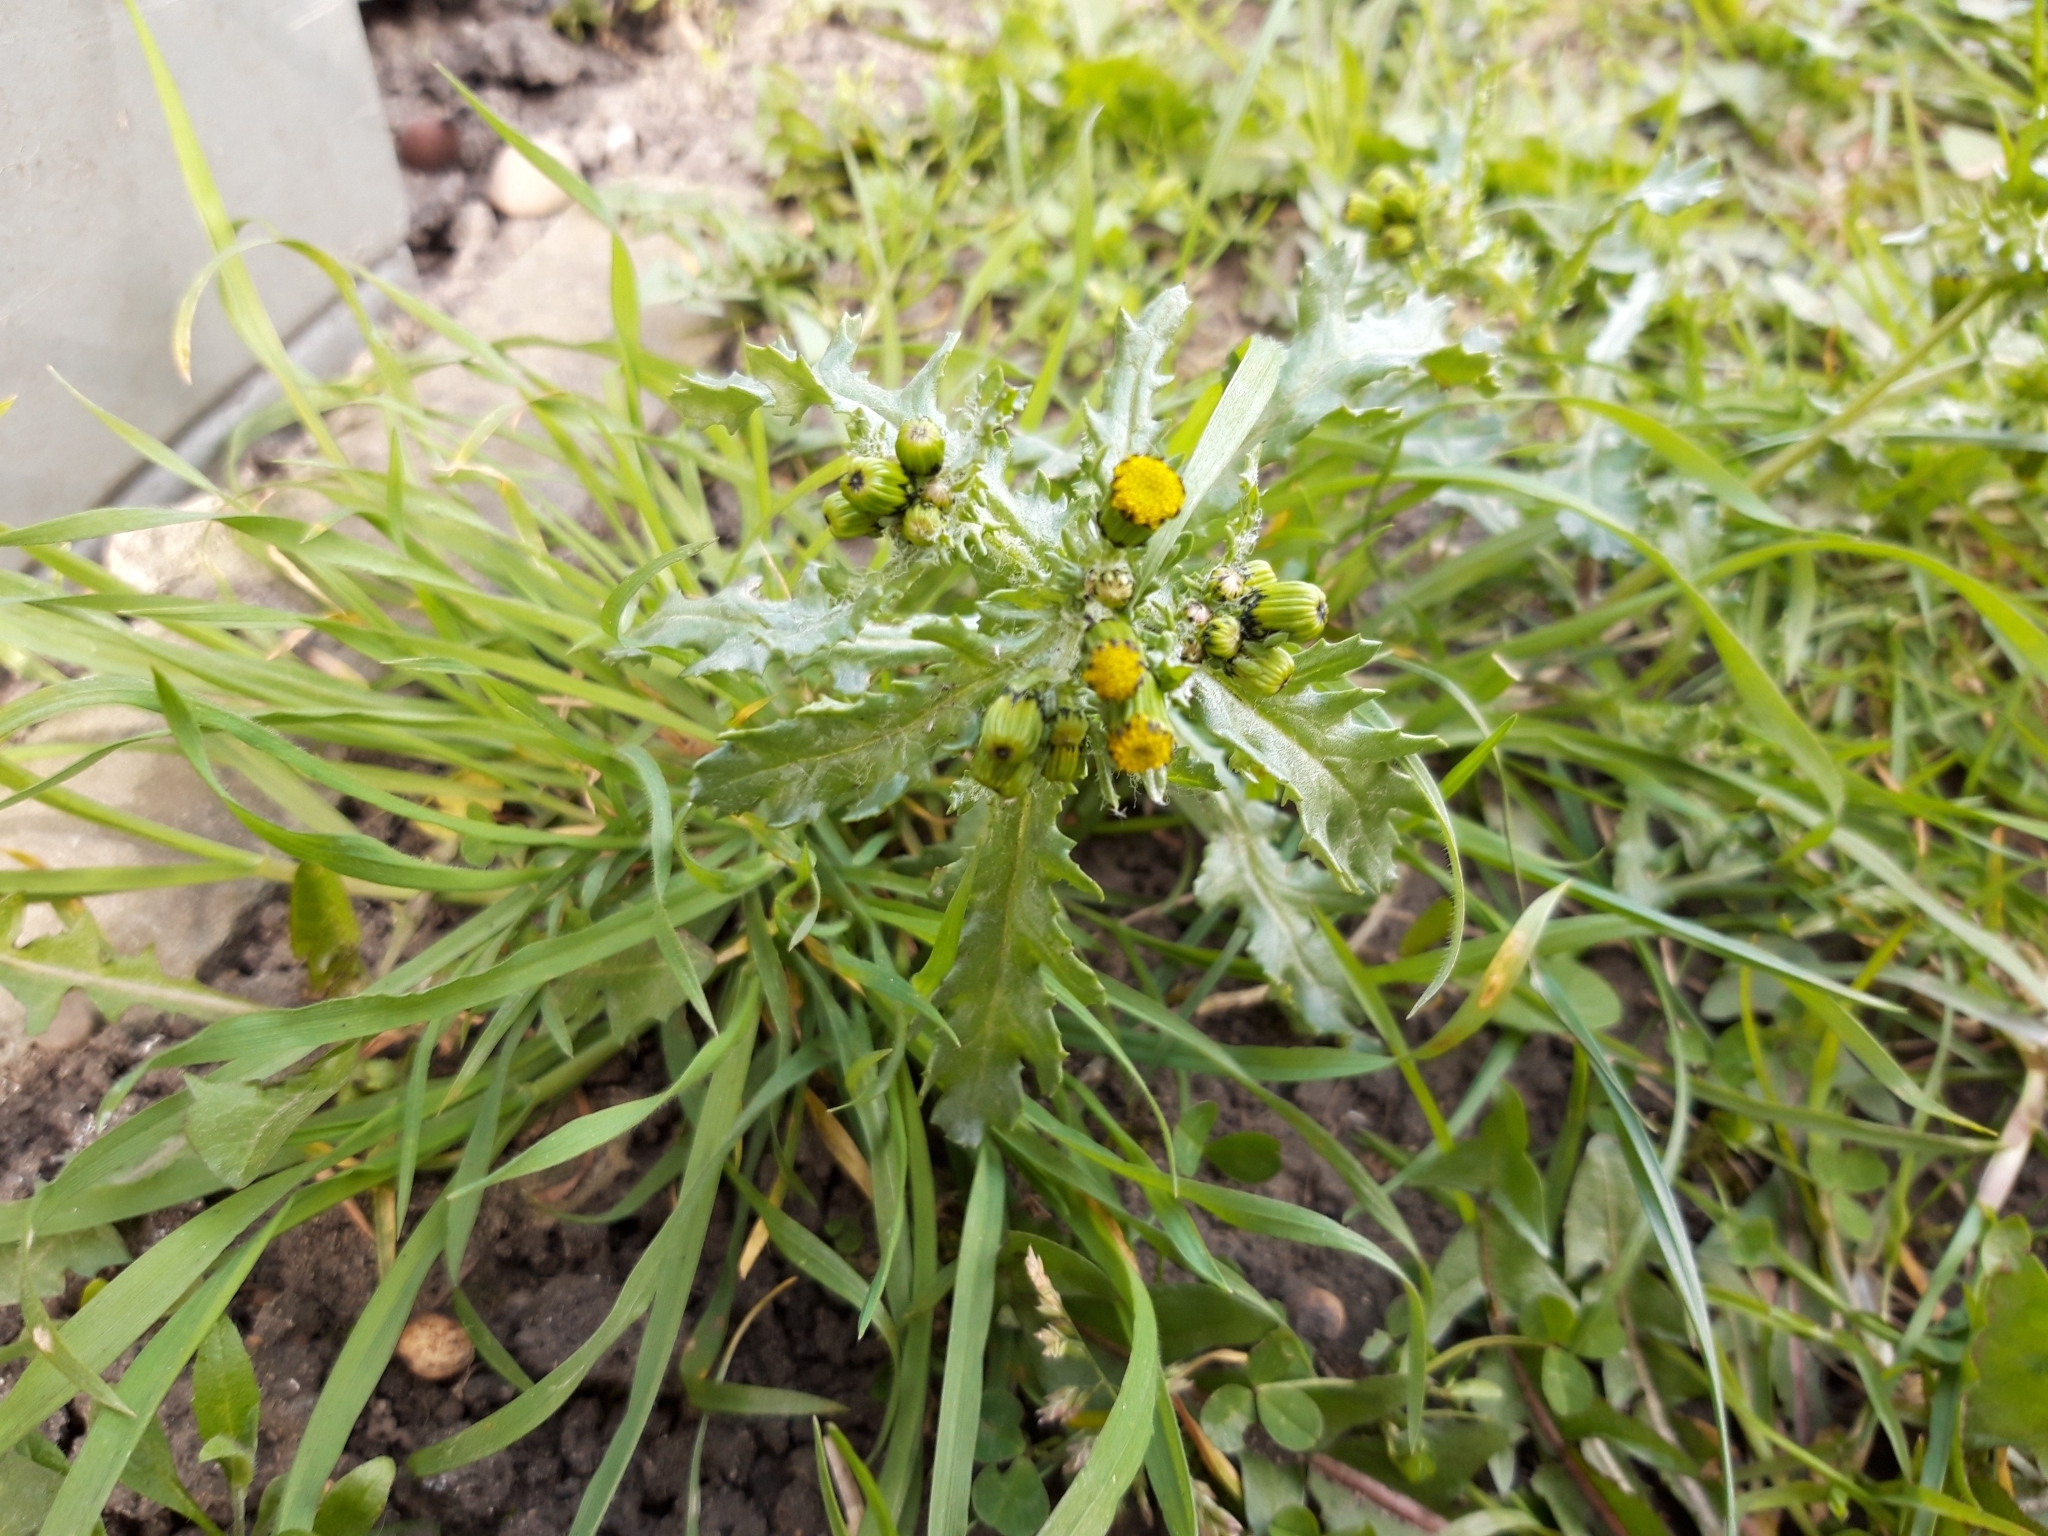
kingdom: Plantae
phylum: Tracheophyta
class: Magnoliopsida
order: Asterales
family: Asteraceae
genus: Senecio
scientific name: Senecio vulgaris
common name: Old-man-in-the-spring
